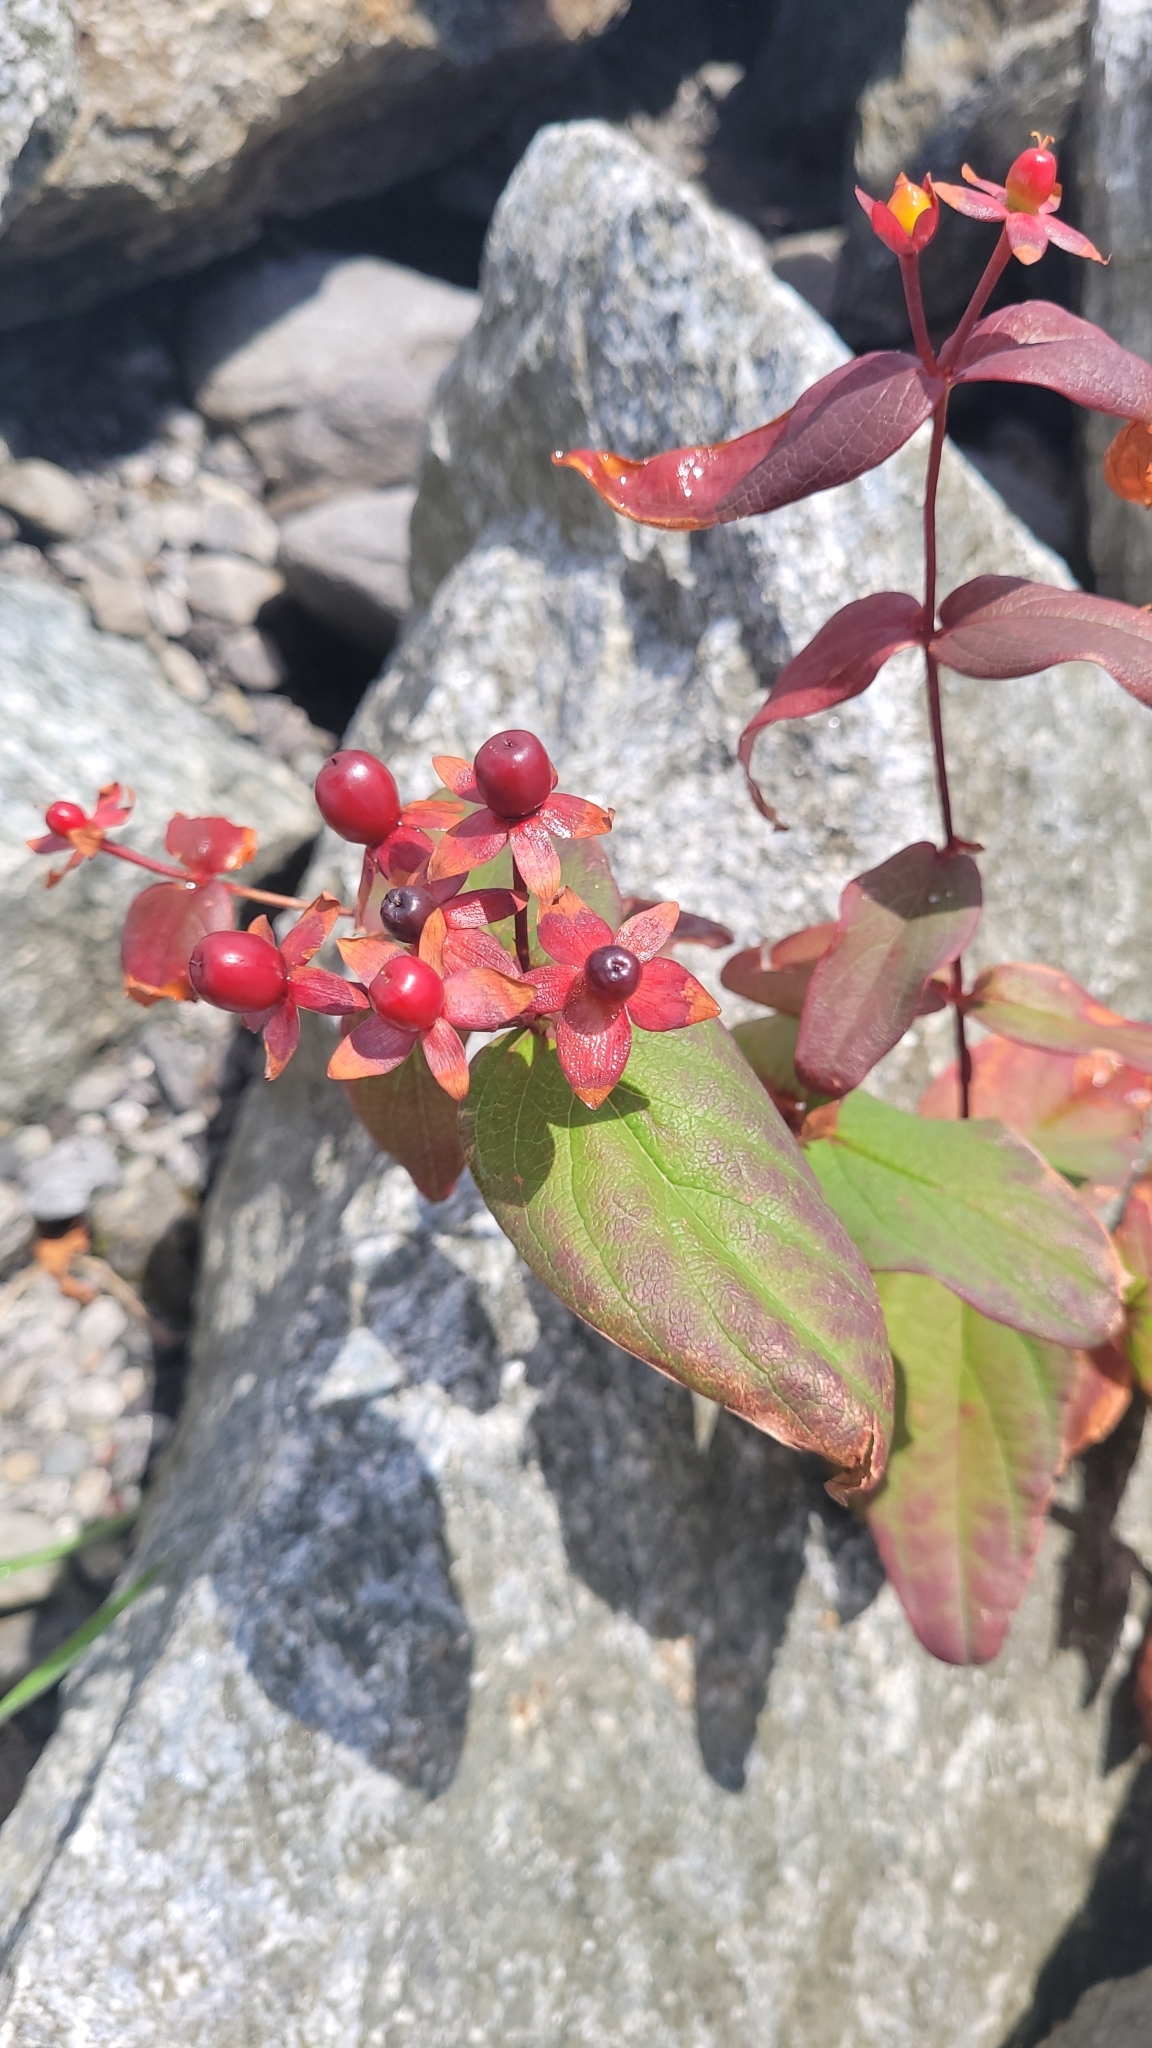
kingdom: Plantae
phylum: Tracheophyta
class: Magnoliopsida
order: Malpighiales
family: Hypericaceae
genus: Hypericum
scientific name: Hypericum androsaemum
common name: Sweet-amber
